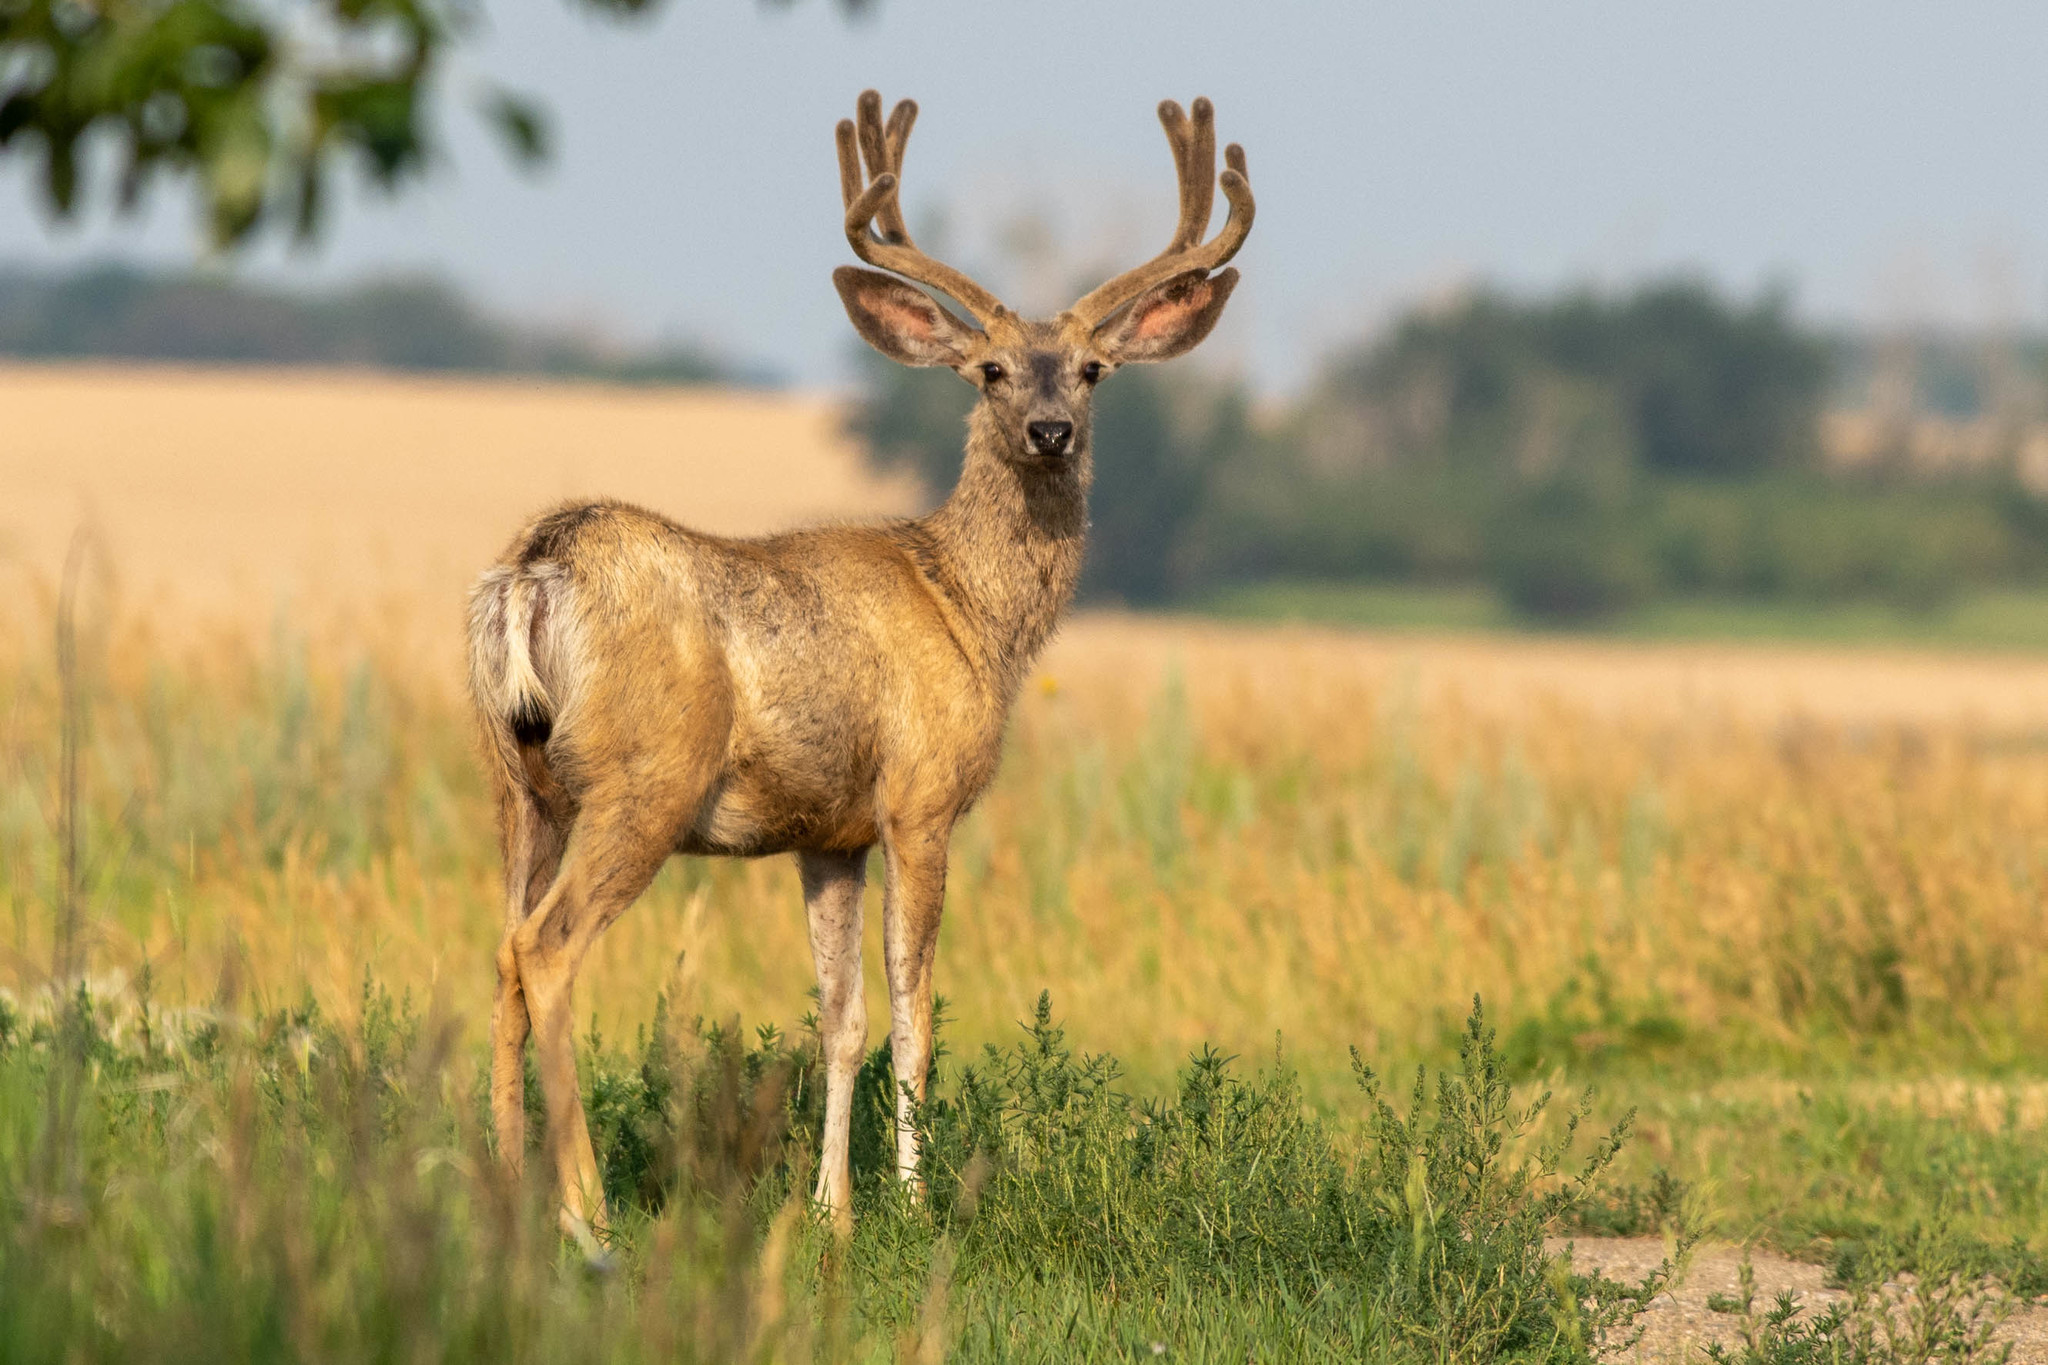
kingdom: Animalia
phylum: Chordata
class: Mammalia
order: Artiodactyla
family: Cervidae
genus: Odocoileus
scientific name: Odocoileus hemionus
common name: Mule deer
